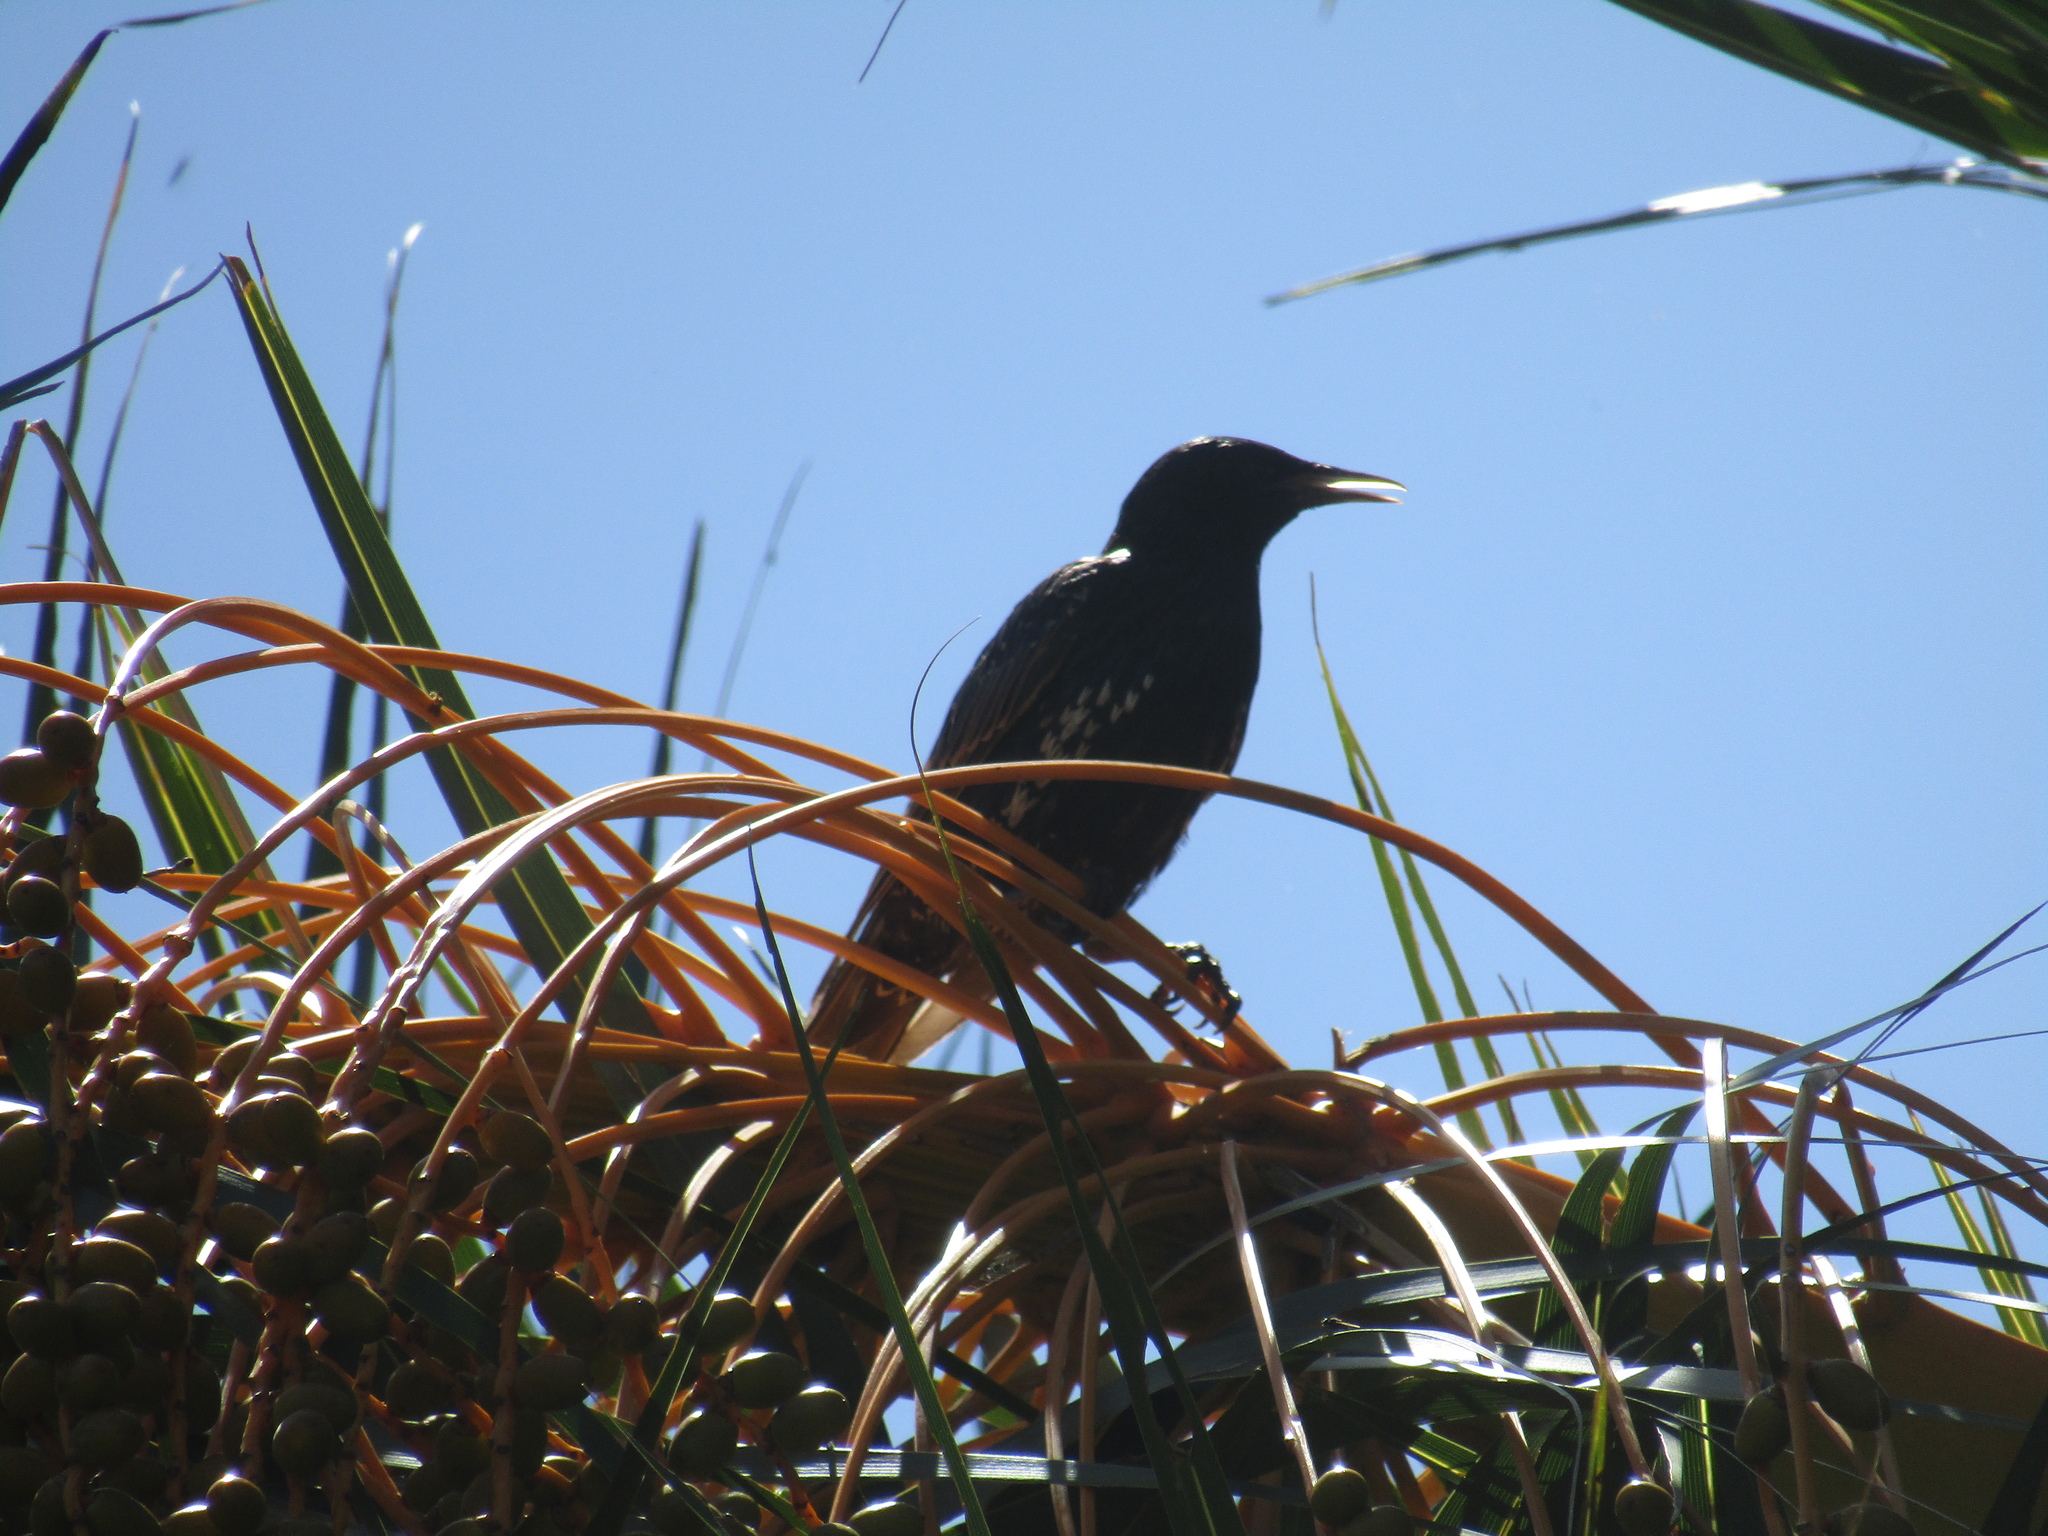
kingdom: Animalia
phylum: Chordata
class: Aves
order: Passeriformes
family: Sturnidae
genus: Sturnus
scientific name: Sturnus vulgaris
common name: Common starling
